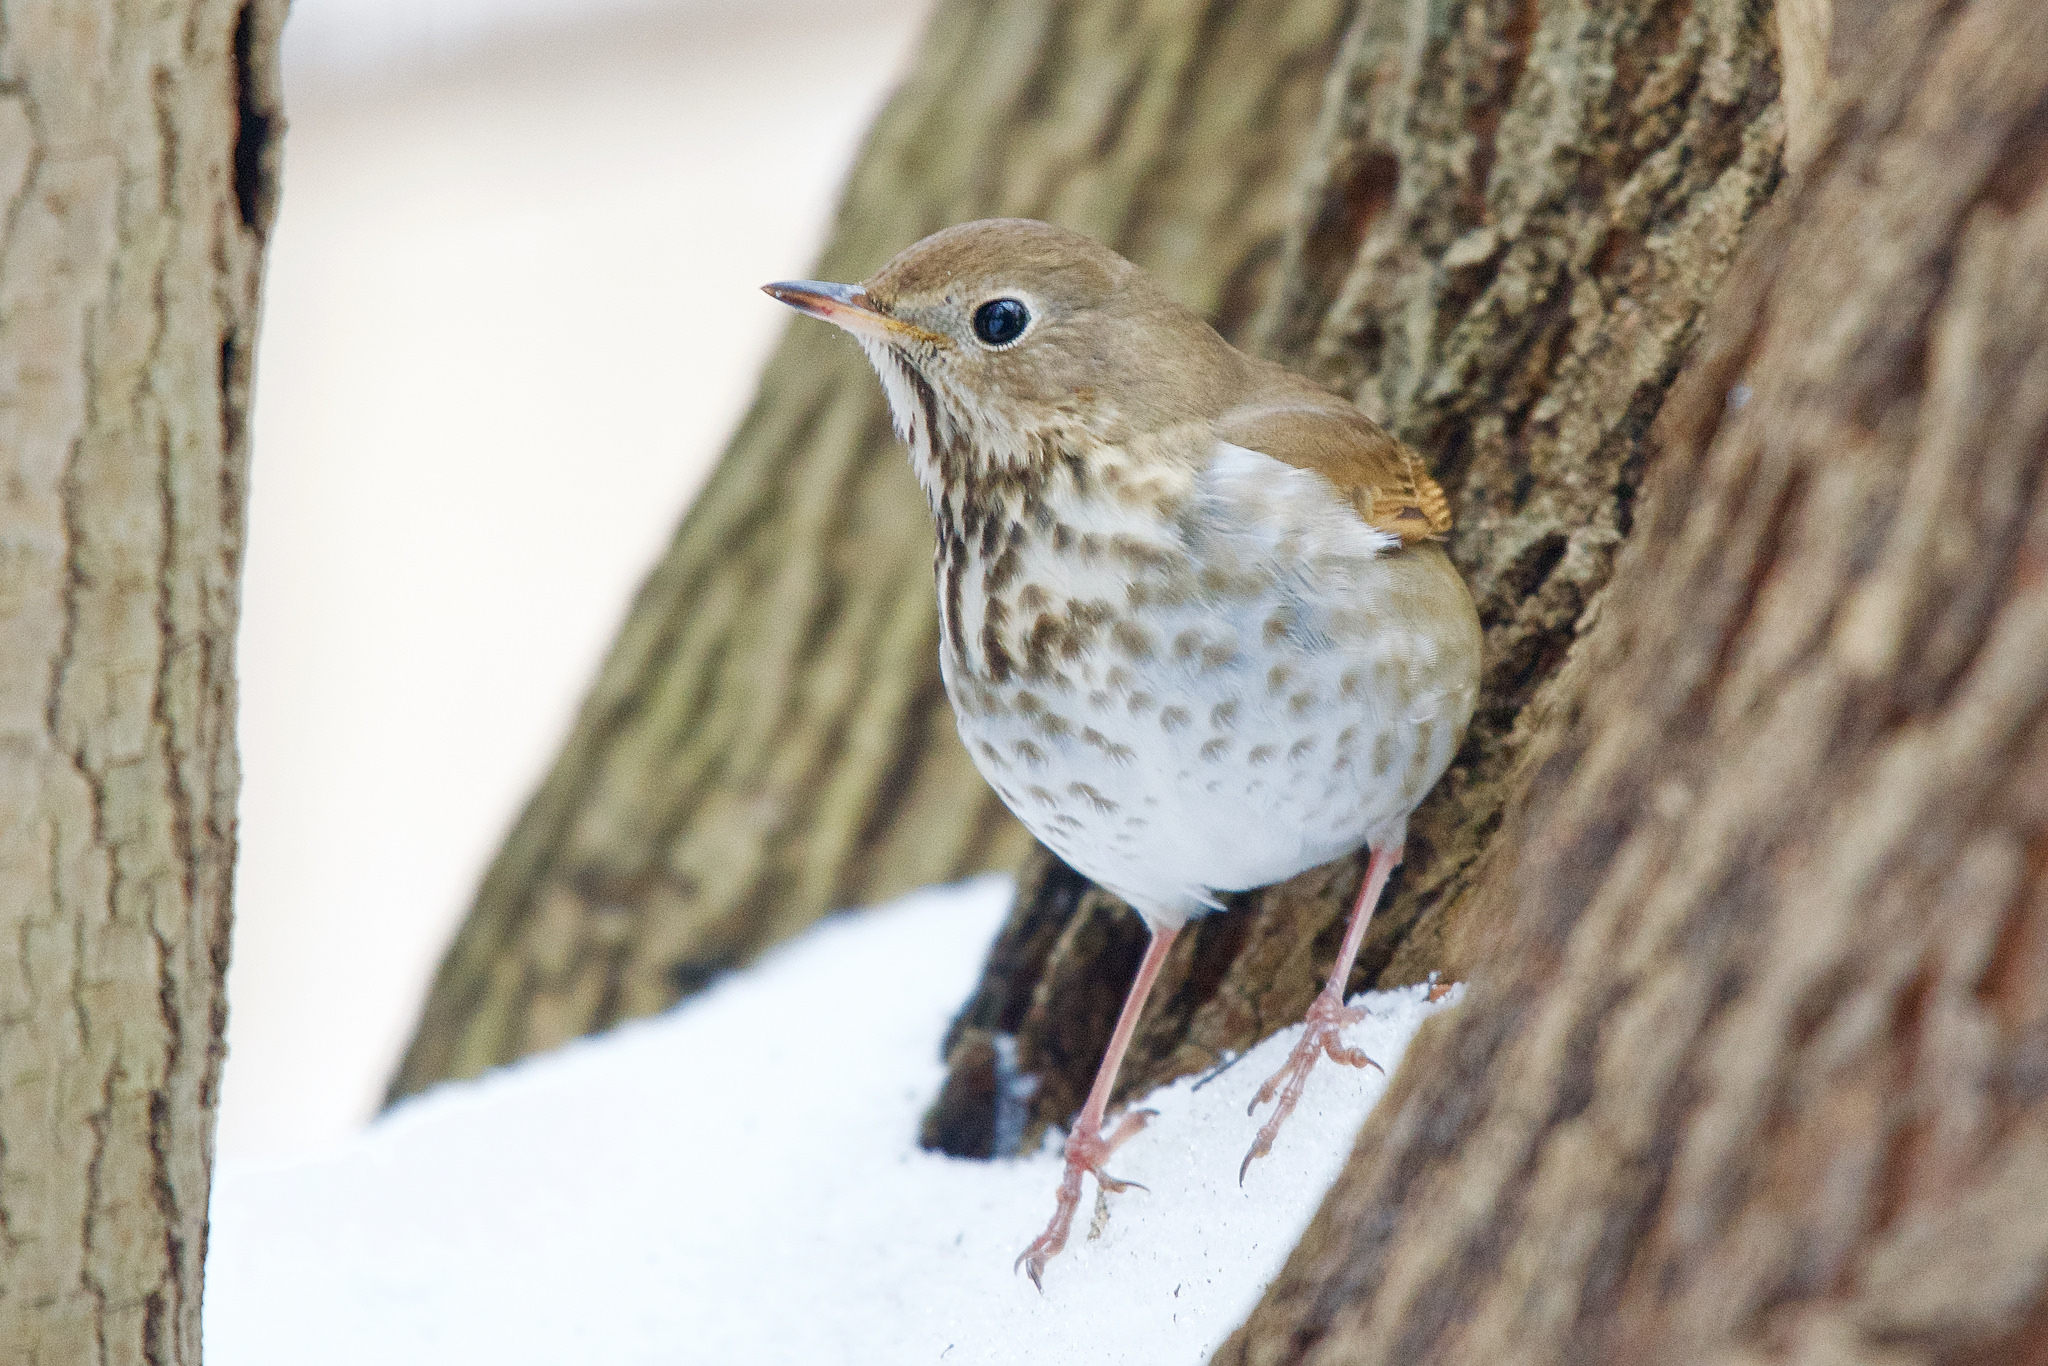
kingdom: Animalia
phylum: Chordata
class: Aves
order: Passeriformes
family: Turdidae
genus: Catharus
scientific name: Catharus guttatus
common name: Hermit thrush
